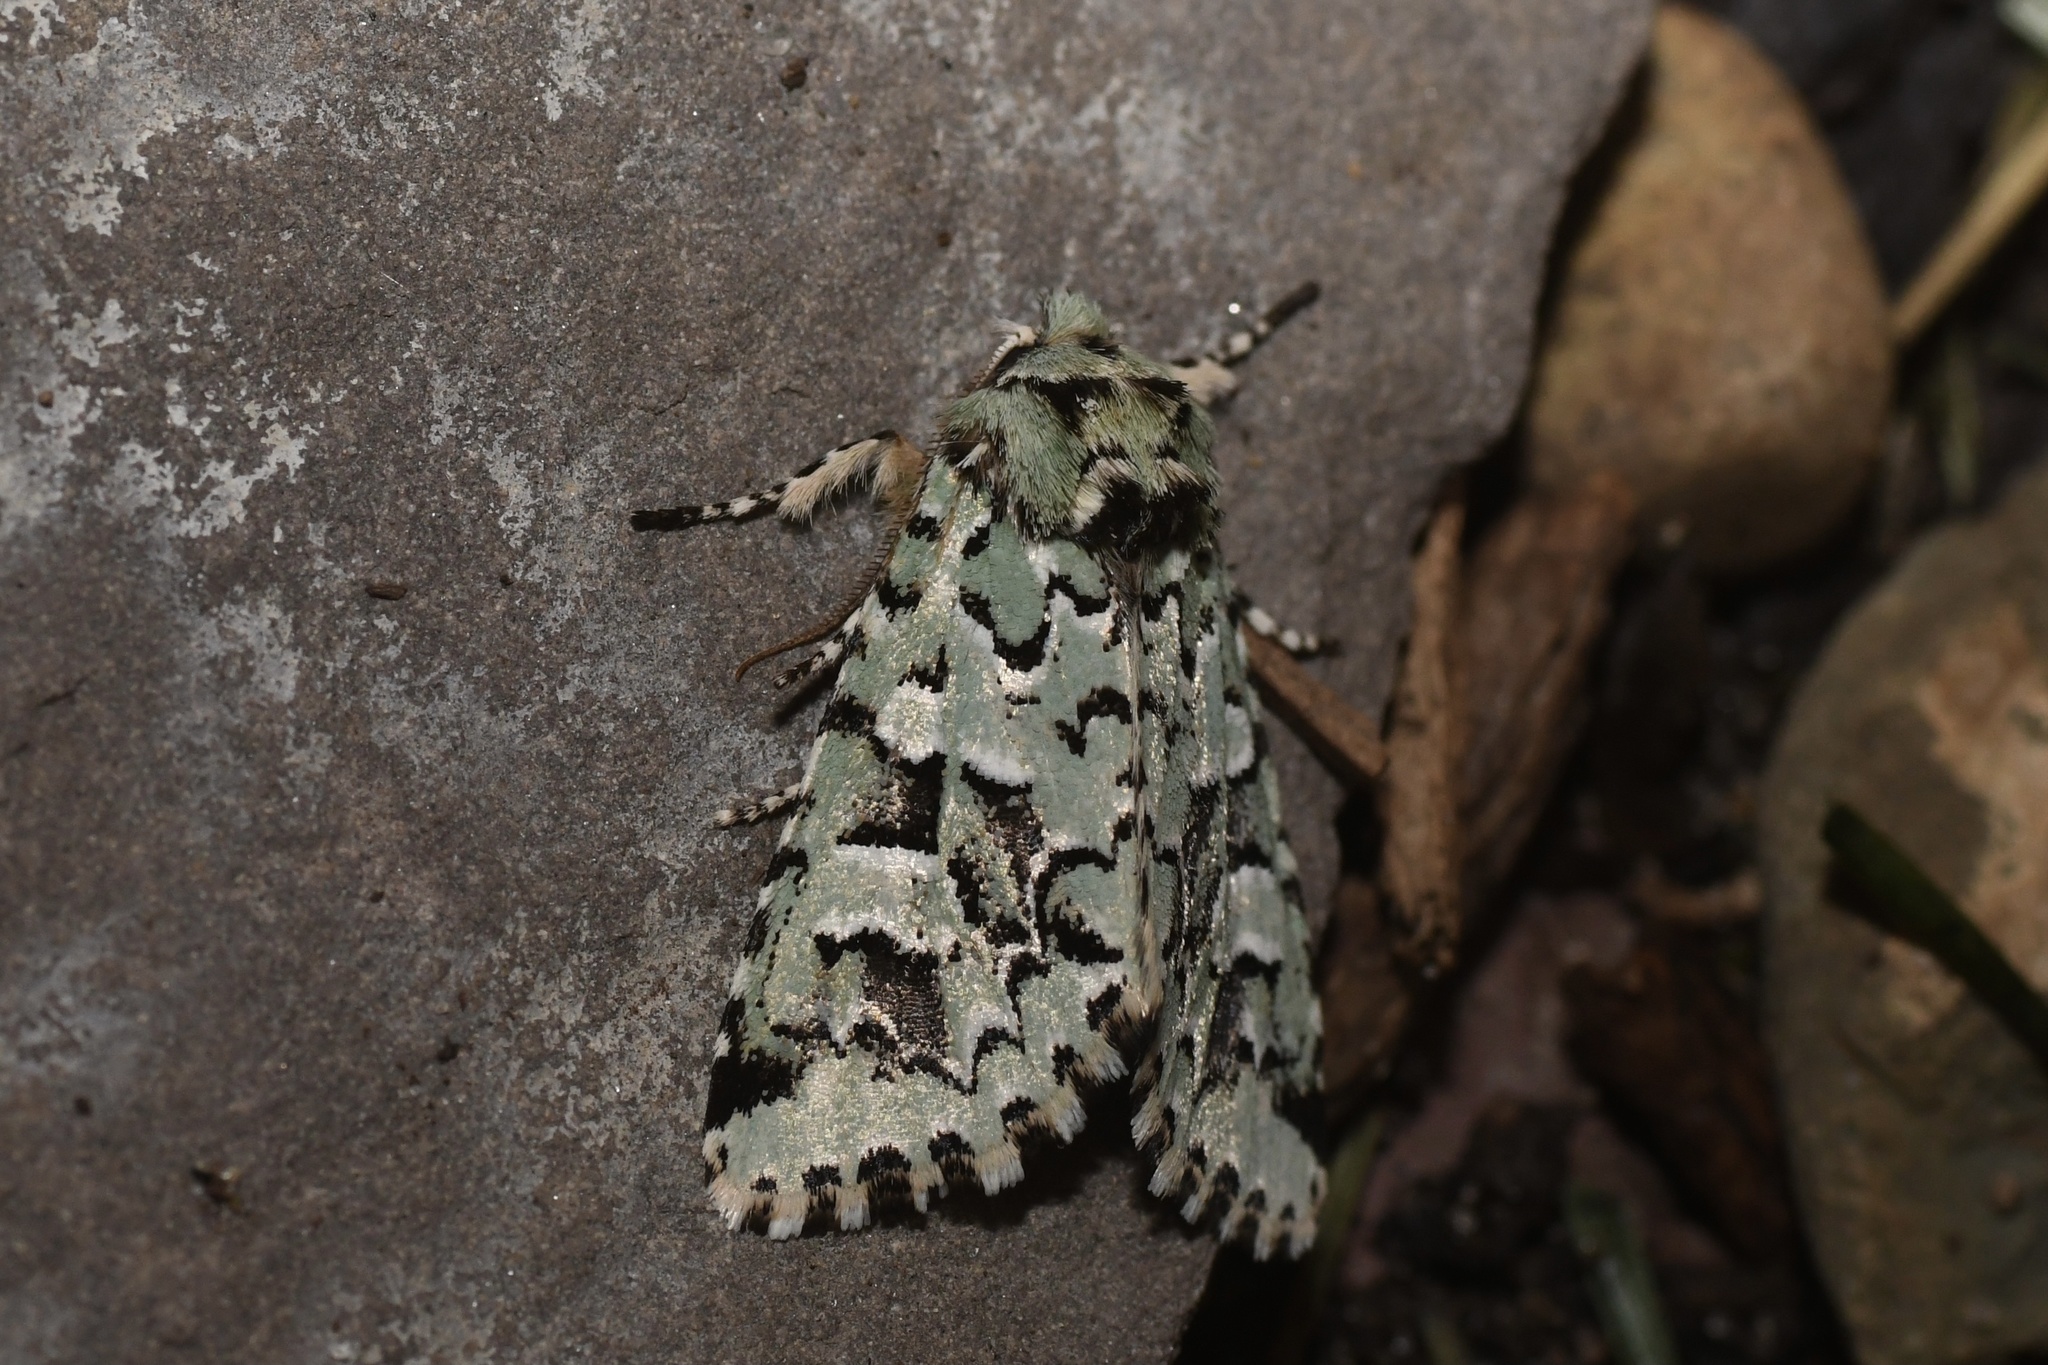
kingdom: Animalia
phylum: Arthropoda
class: Insecta
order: Lepidoptera
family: Noctuidae
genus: Feralia
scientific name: Feralia comstocki
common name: Comstock's sallow
